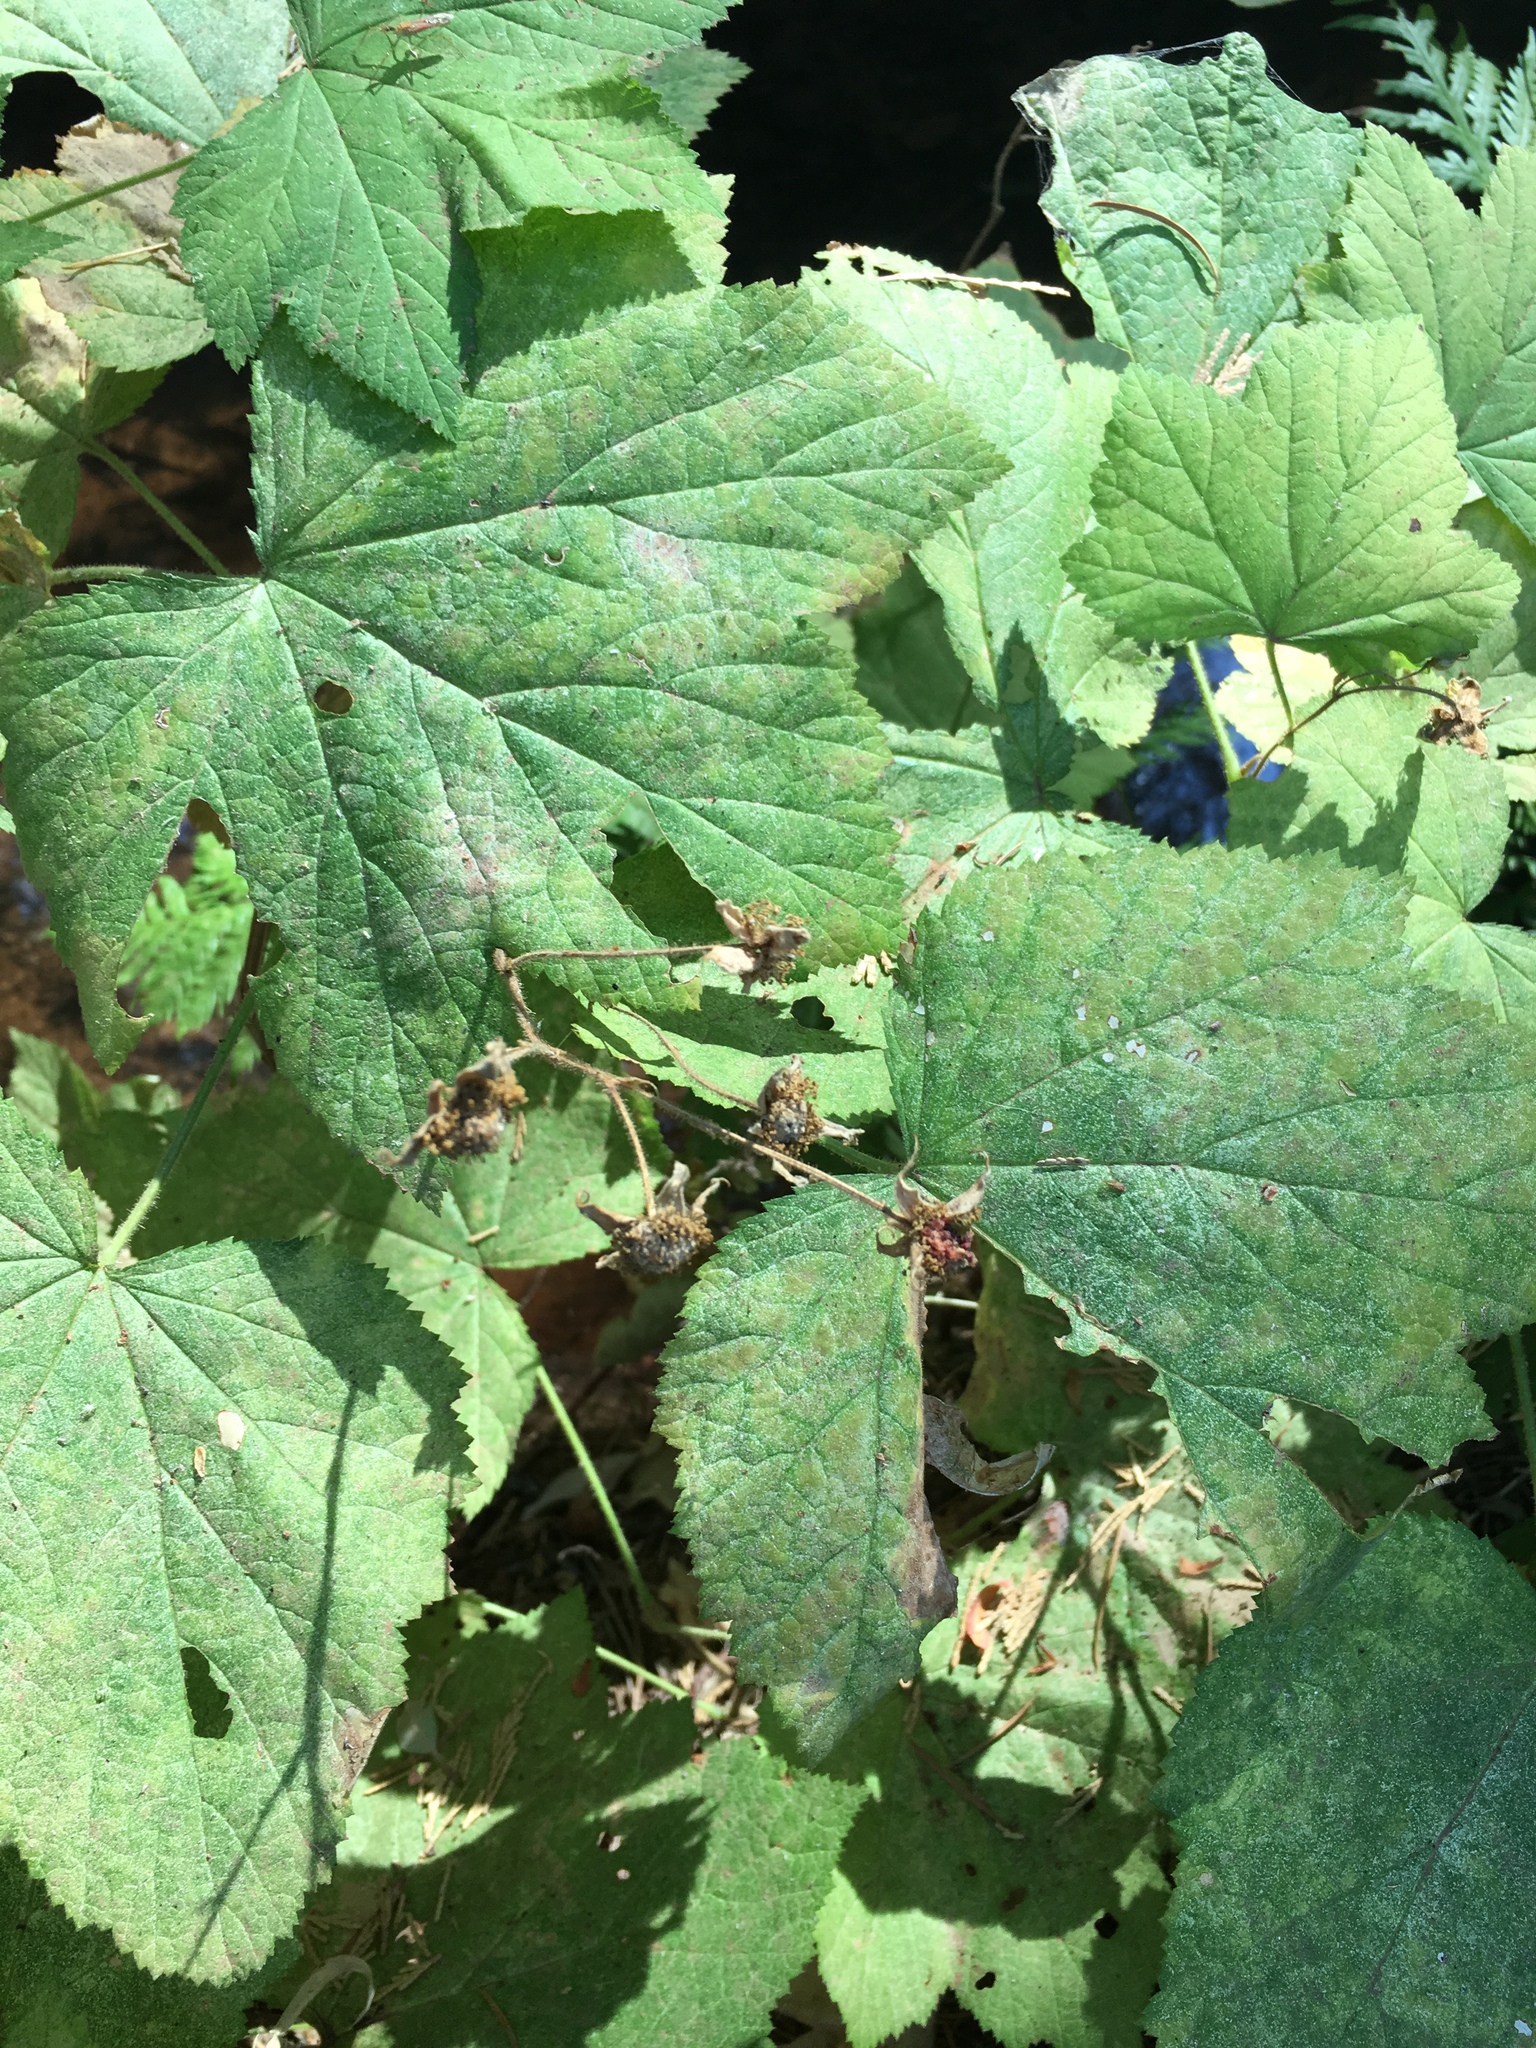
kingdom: Plantae
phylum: Tracheophyta
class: Magnoliopsida
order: Rosales
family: Rosaceae
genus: Rubus
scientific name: Rubus parviflorus
